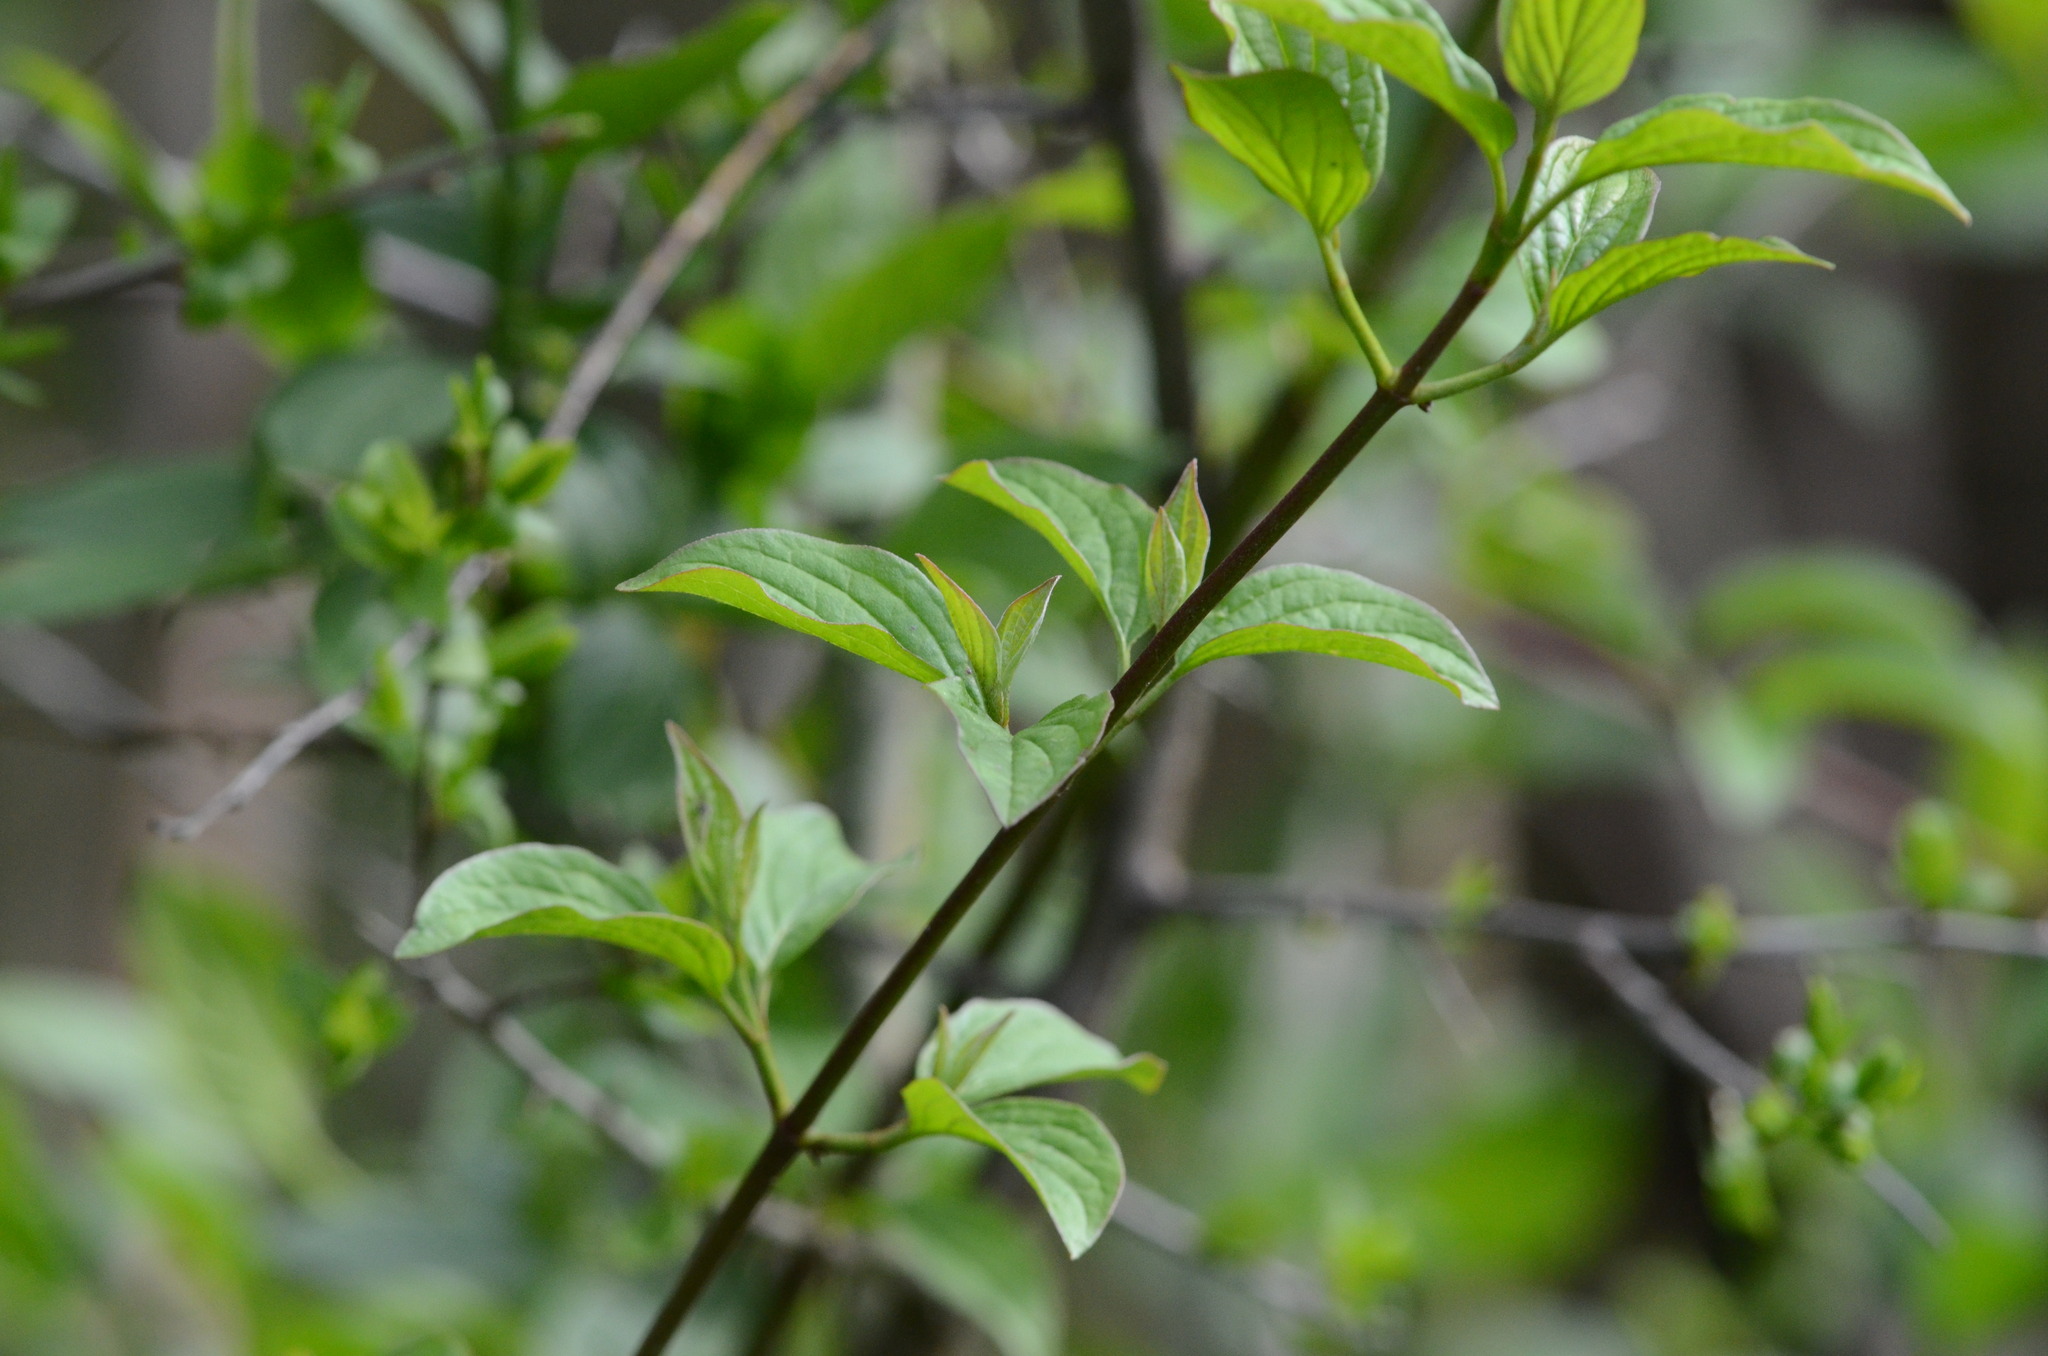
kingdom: Plantae
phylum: Tracheophyta
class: Magnoliopsida
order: Cornales
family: Cornaceae
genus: Cornus
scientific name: Cornus sanguinea
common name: Dogwood
